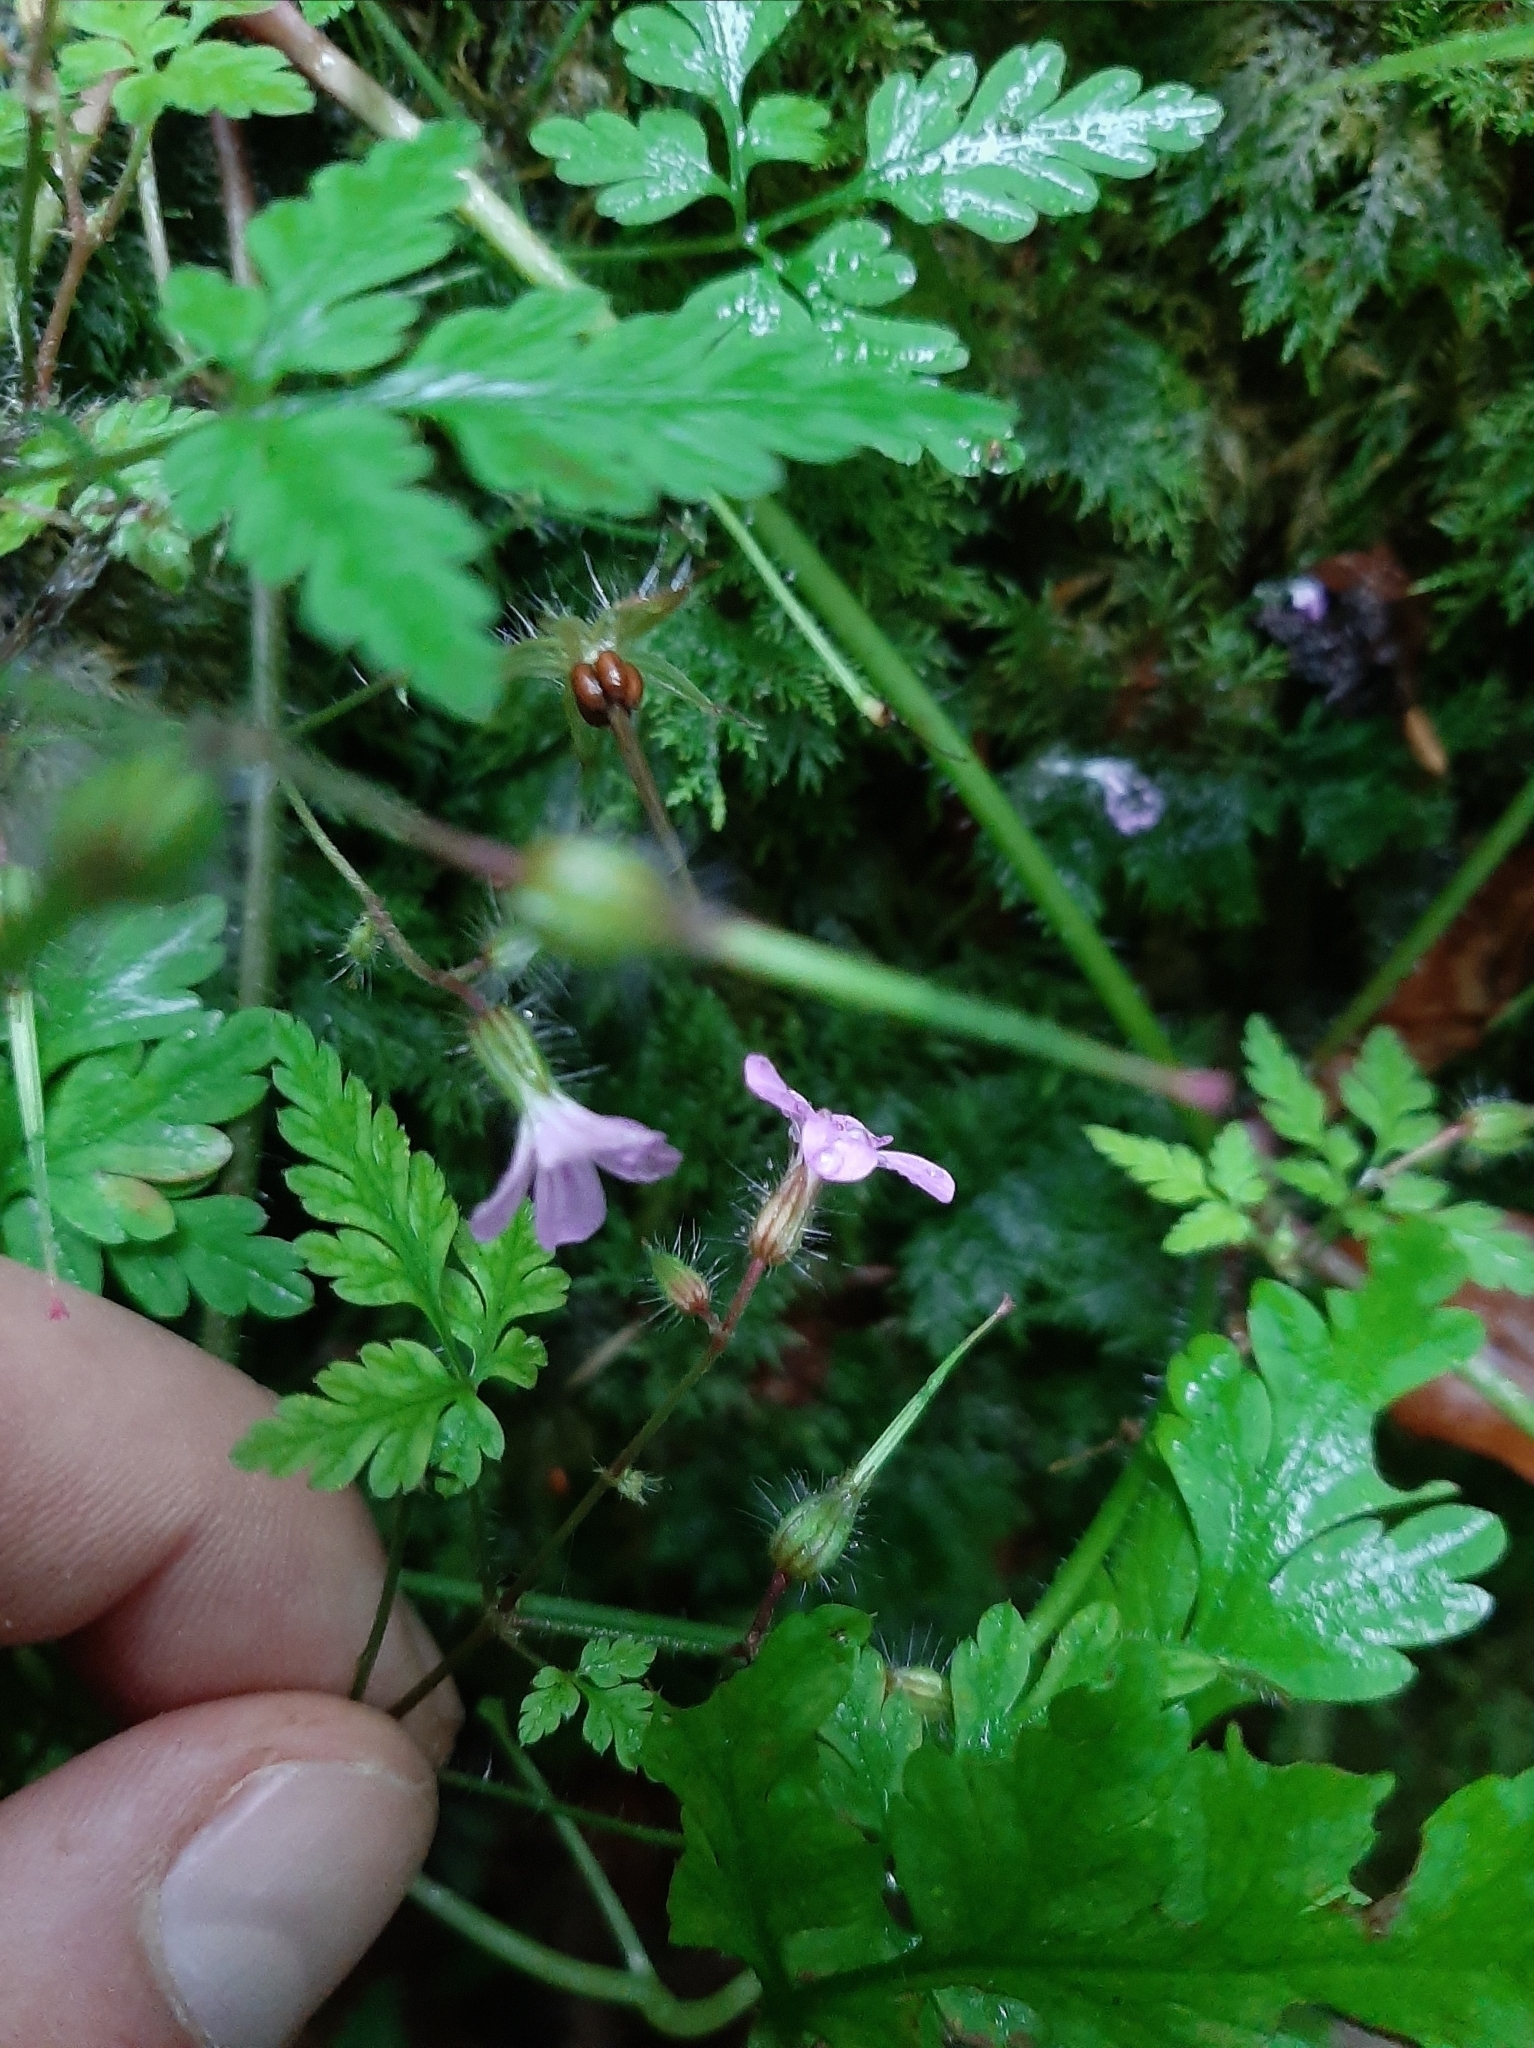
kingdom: Plantae
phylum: Tracheophyta
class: Magnoliopsida
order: Geraniales
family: Geraniaceae
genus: Geranium
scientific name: Geranium robertianum
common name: Herb-robert
